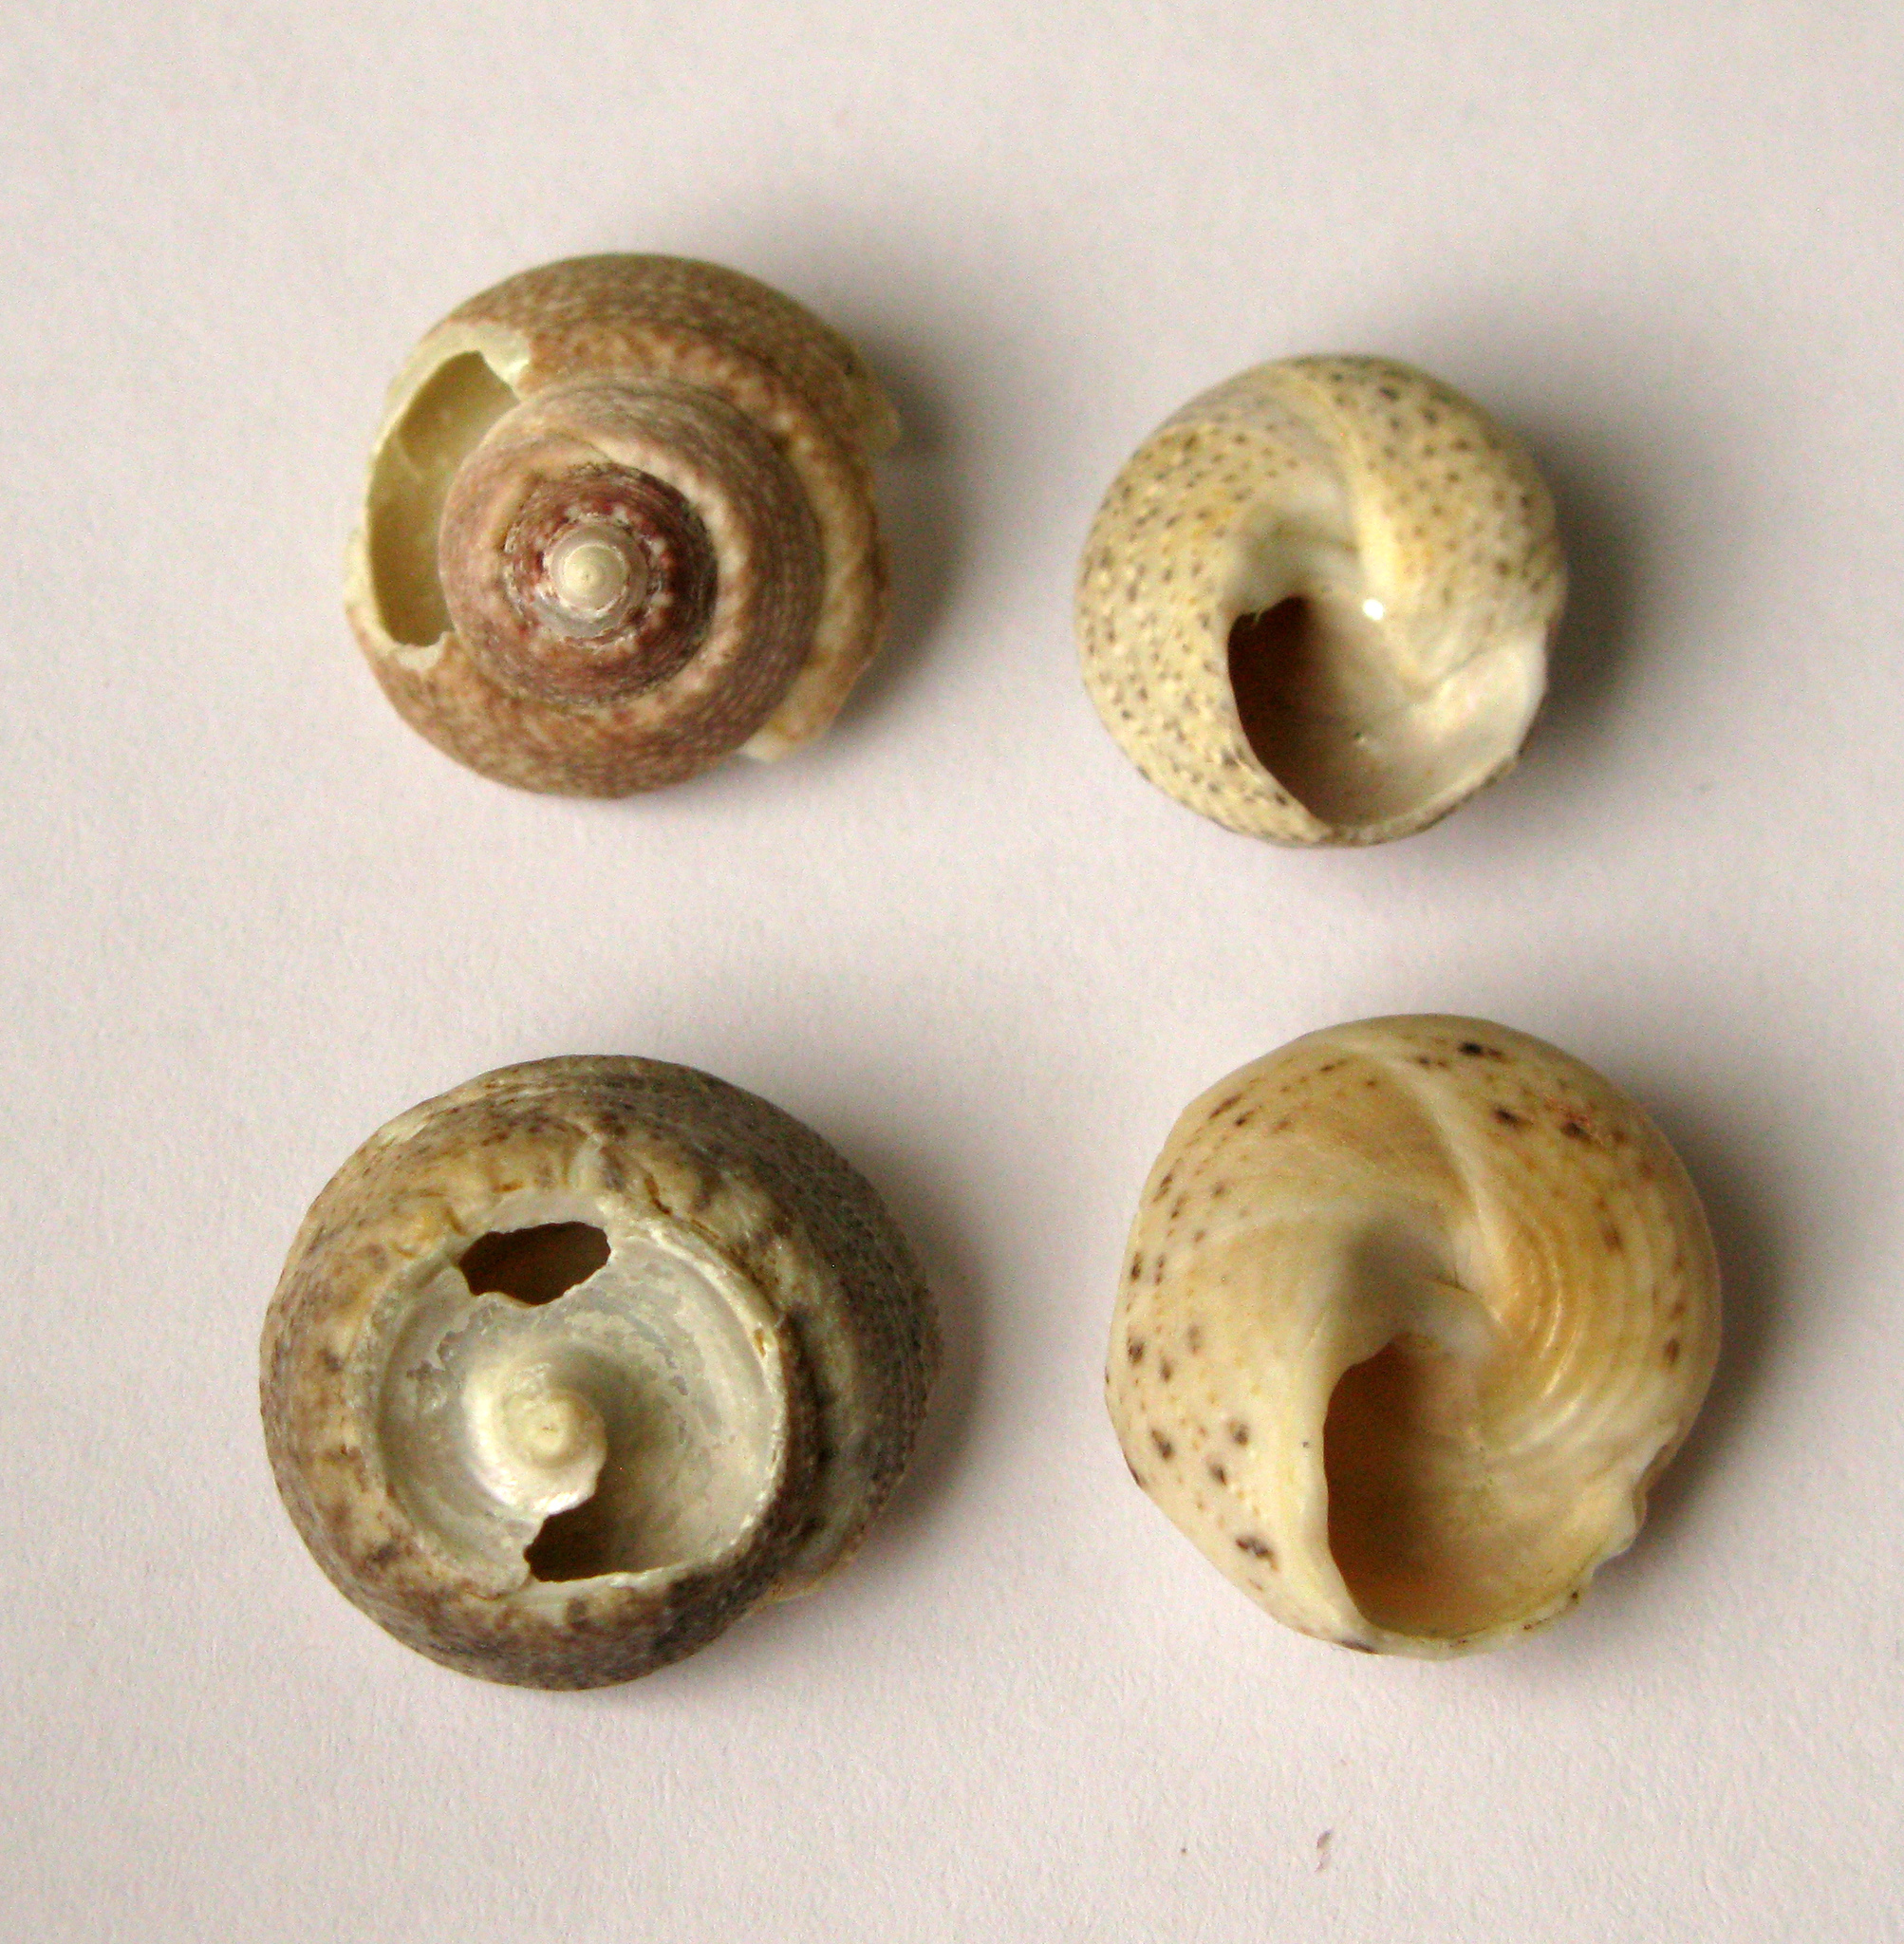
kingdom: Animalia
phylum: Mollusca
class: Gastropoda
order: Trochida
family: Trochidae
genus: Steromphala
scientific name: Steromphala albida
